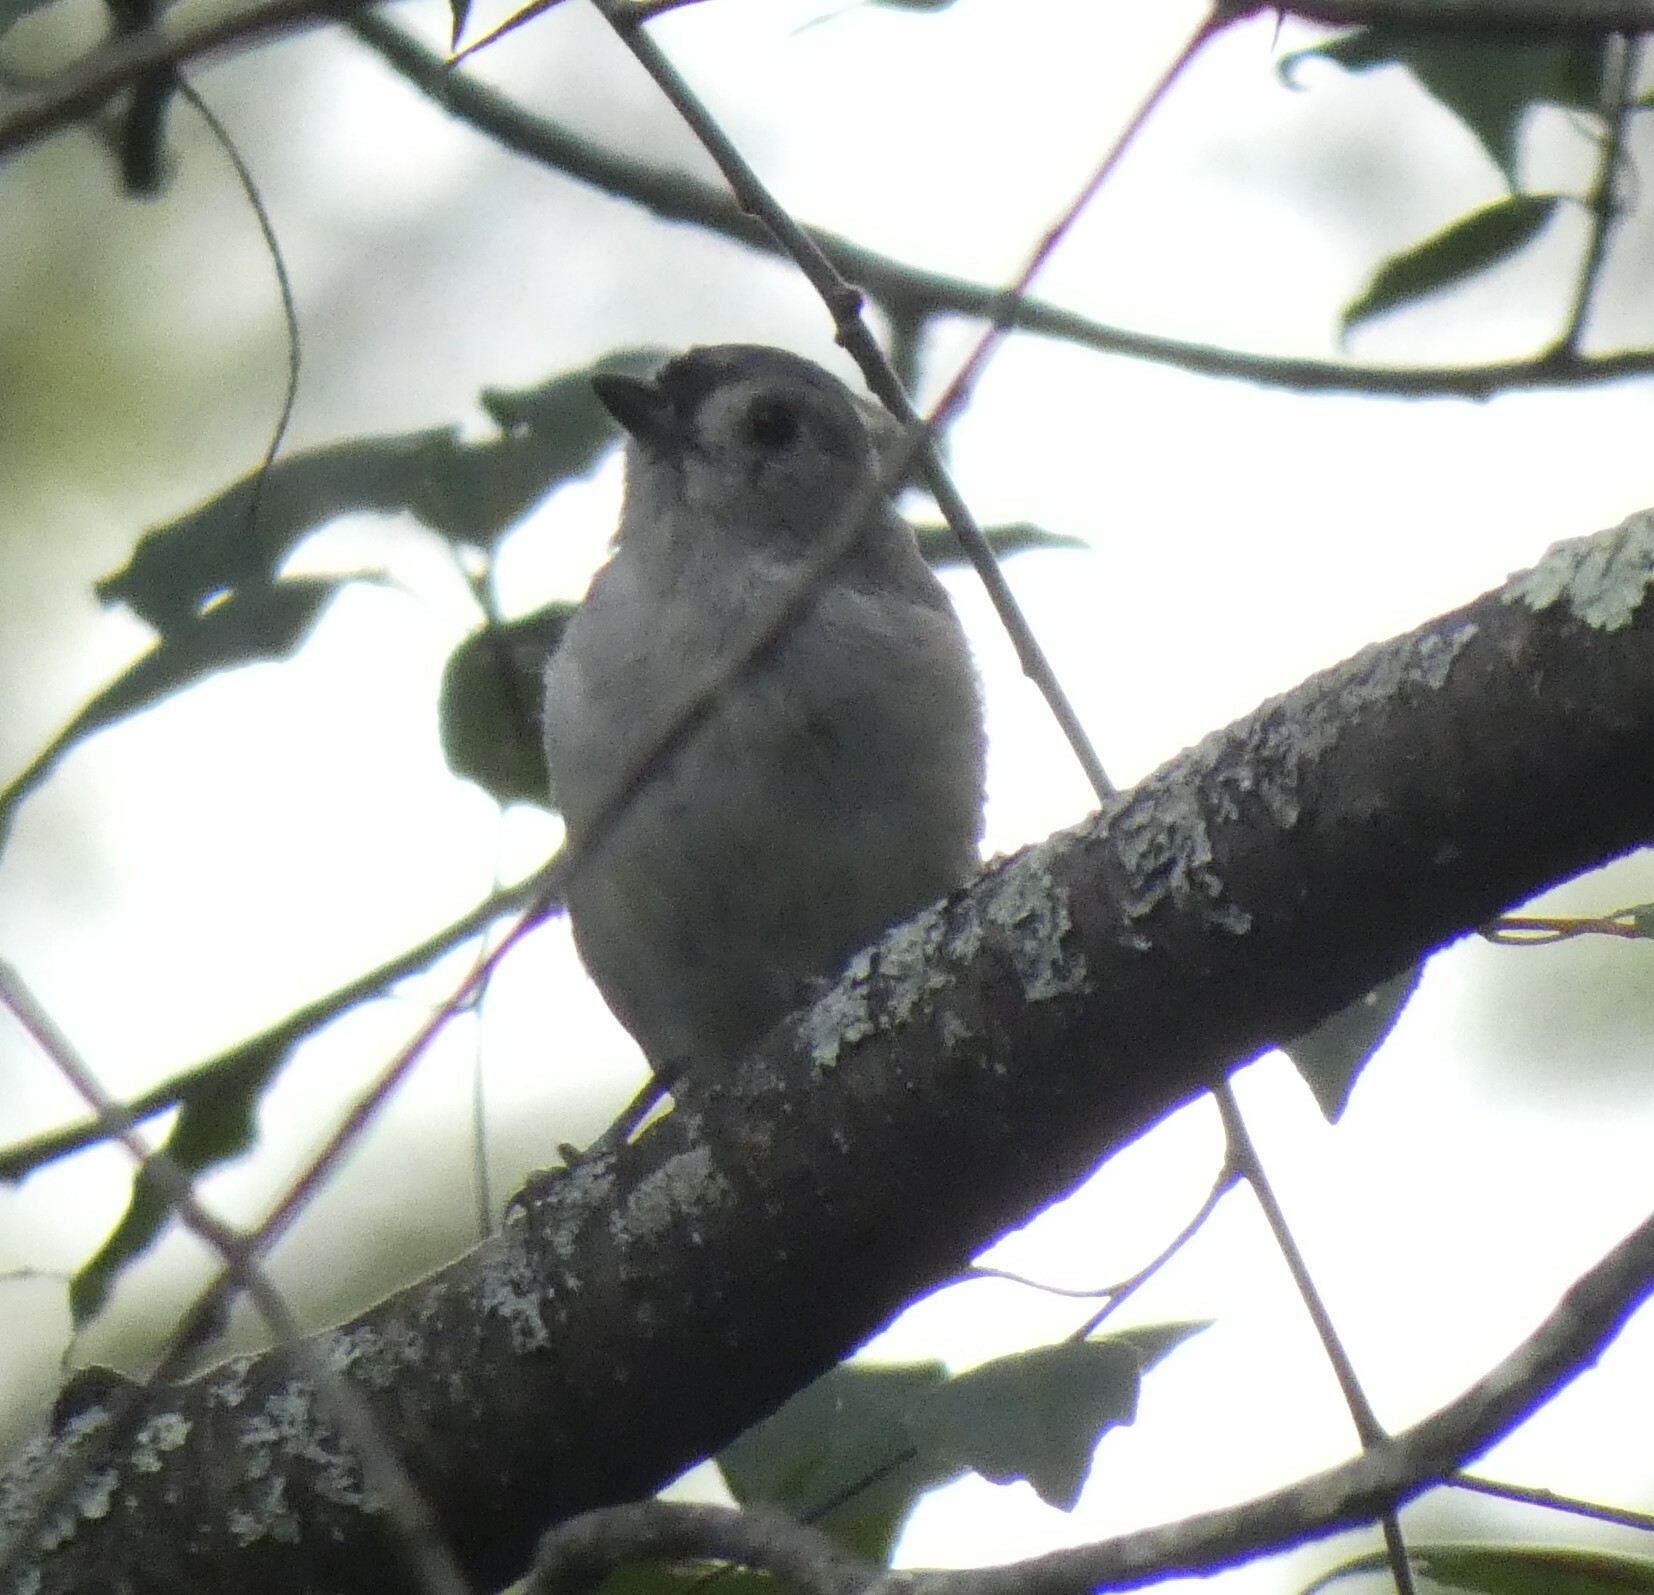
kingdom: Animalia
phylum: Chordata
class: Aves
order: Passeriformes
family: Paridae
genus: Baeolophus
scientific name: Baeolophus bicolor
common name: Tufted titmouse
